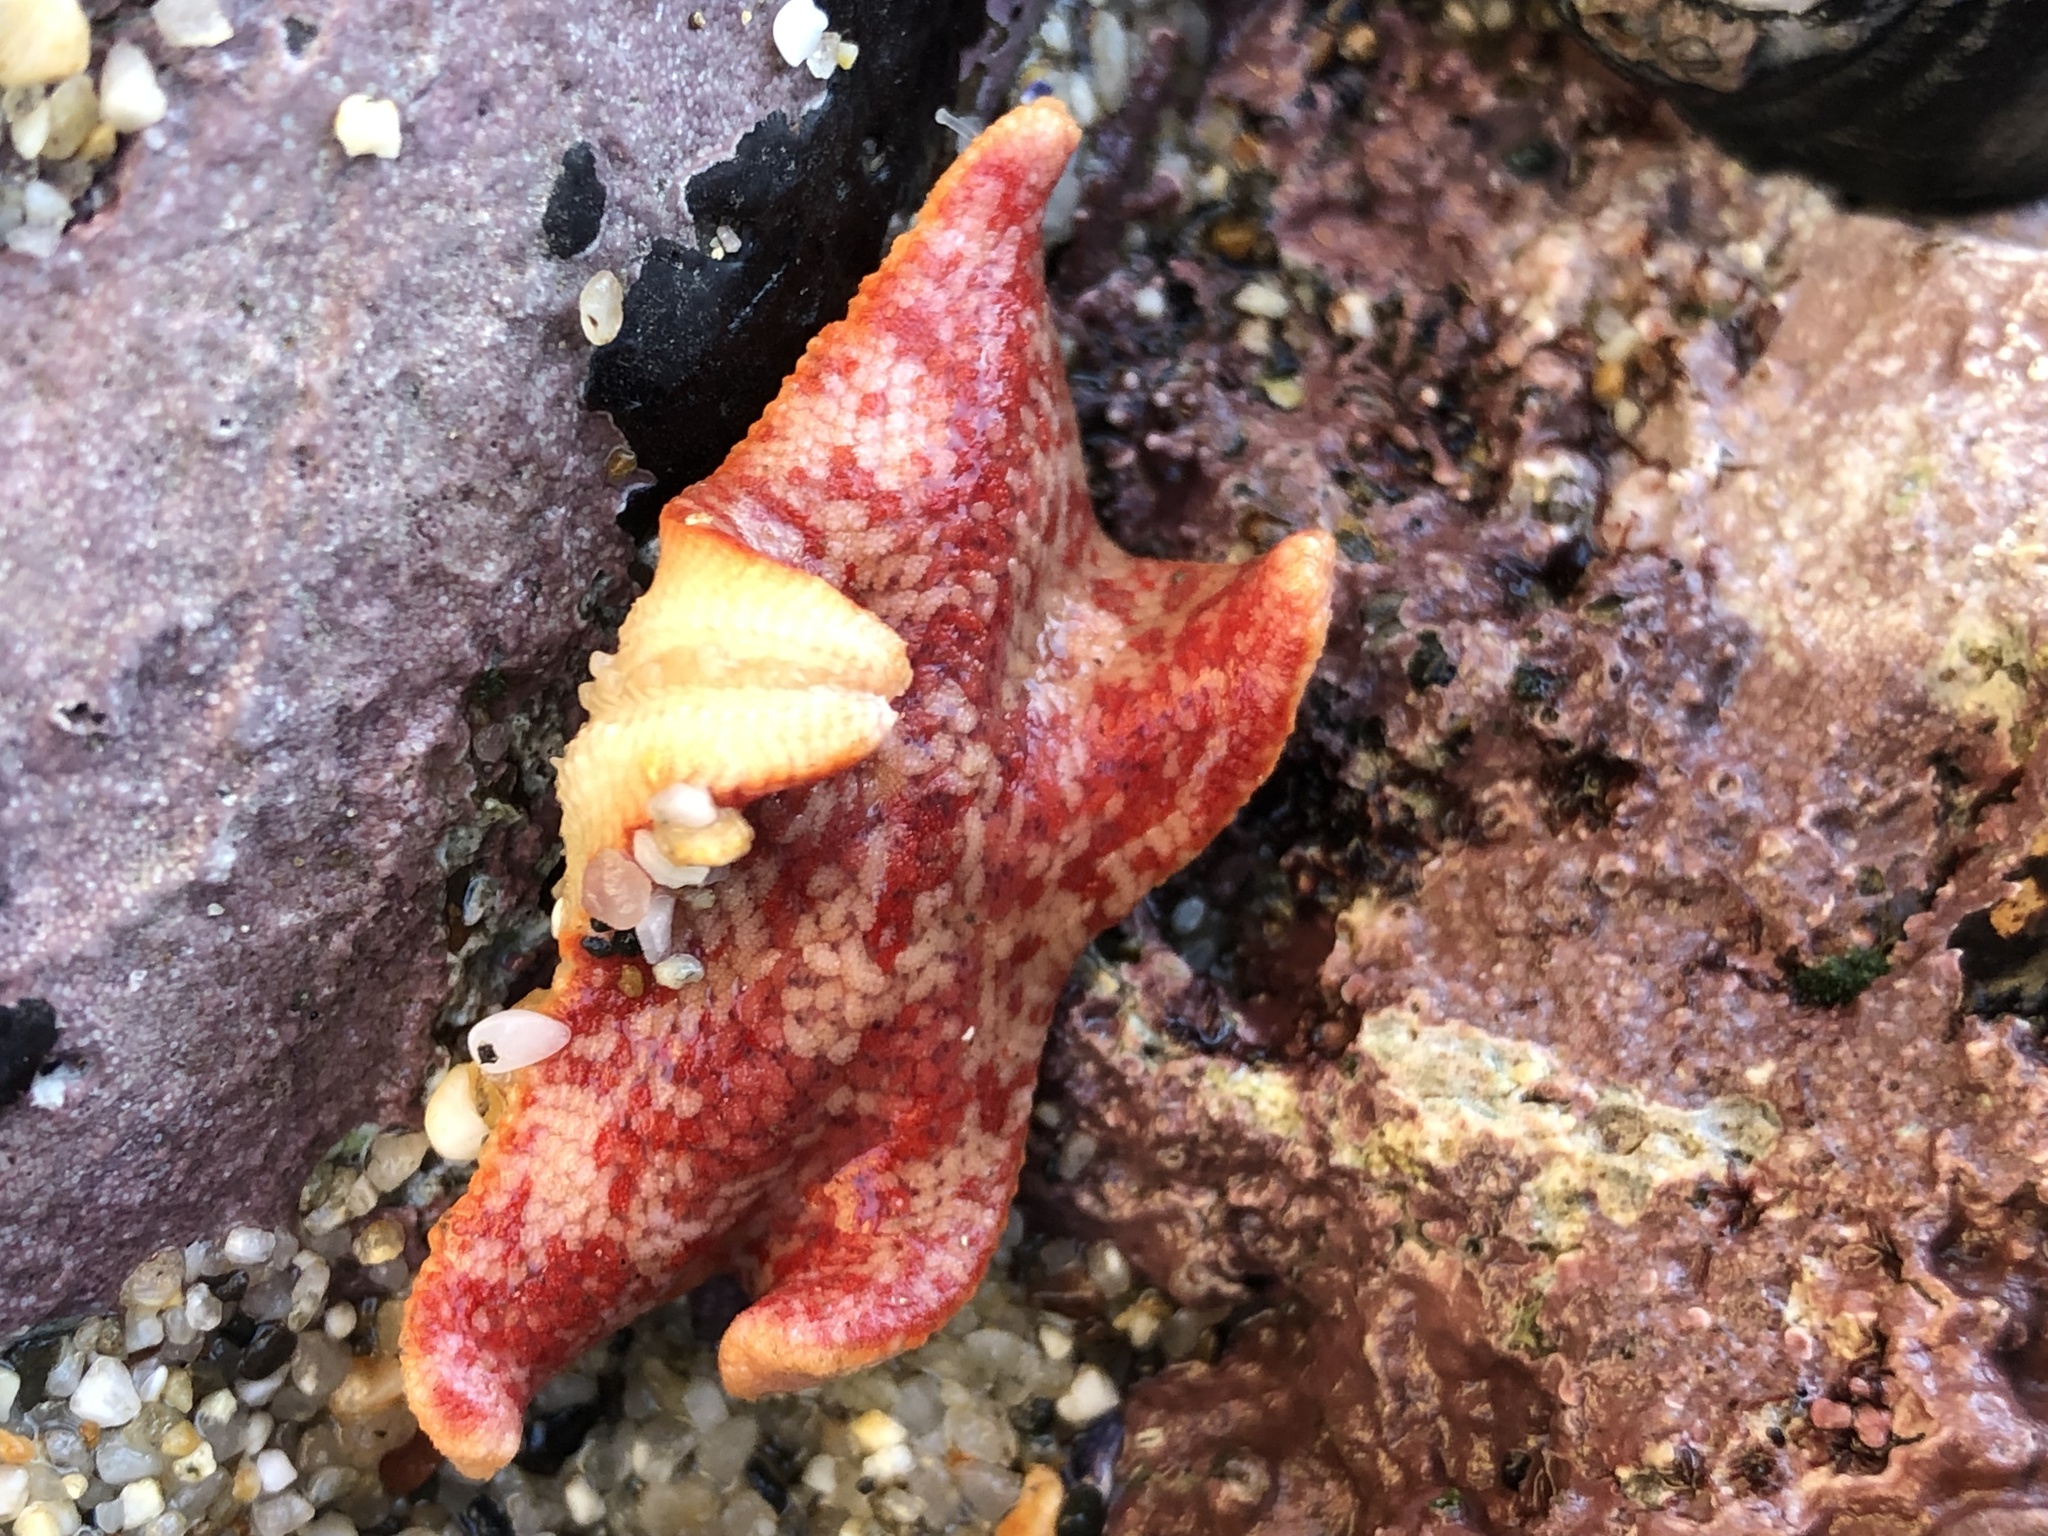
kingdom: Animalia
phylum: Echinodermata
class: Asteroidea
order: Valvatida
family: Asterinidae
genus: Patiria
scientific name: Patiria miniata
